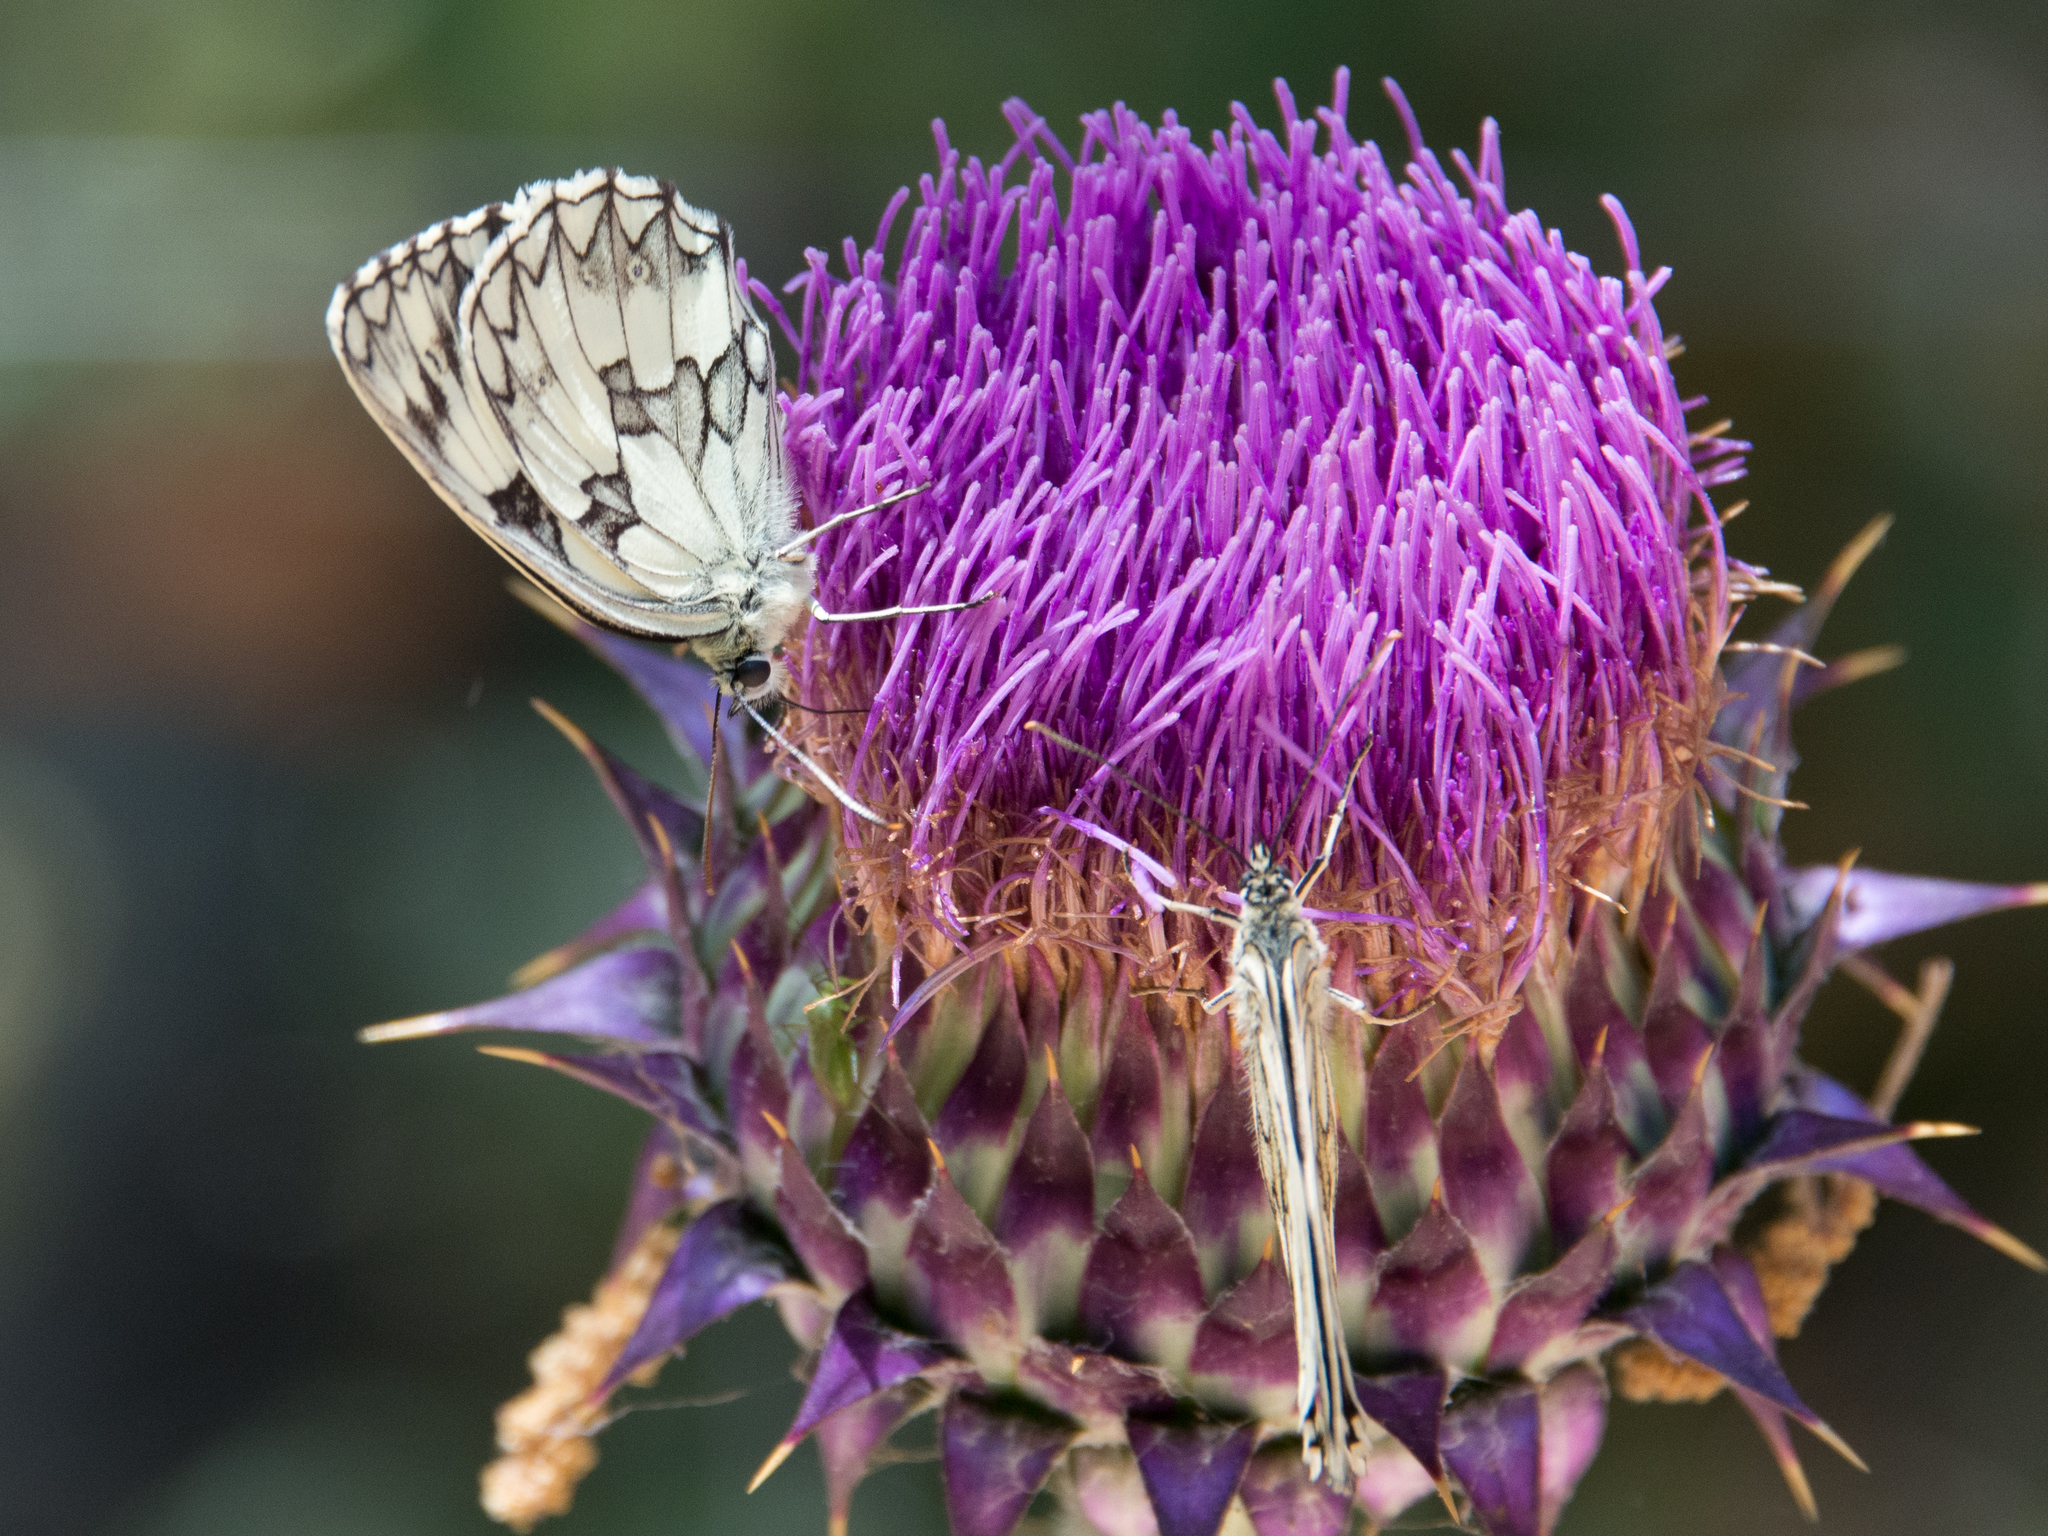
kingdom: Animalia
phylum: Arthropoda
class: Insecta
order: Lepidoptera
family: Nymphalidae
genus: Melanargia
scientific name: Melanargia galathea
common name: Marbled white
